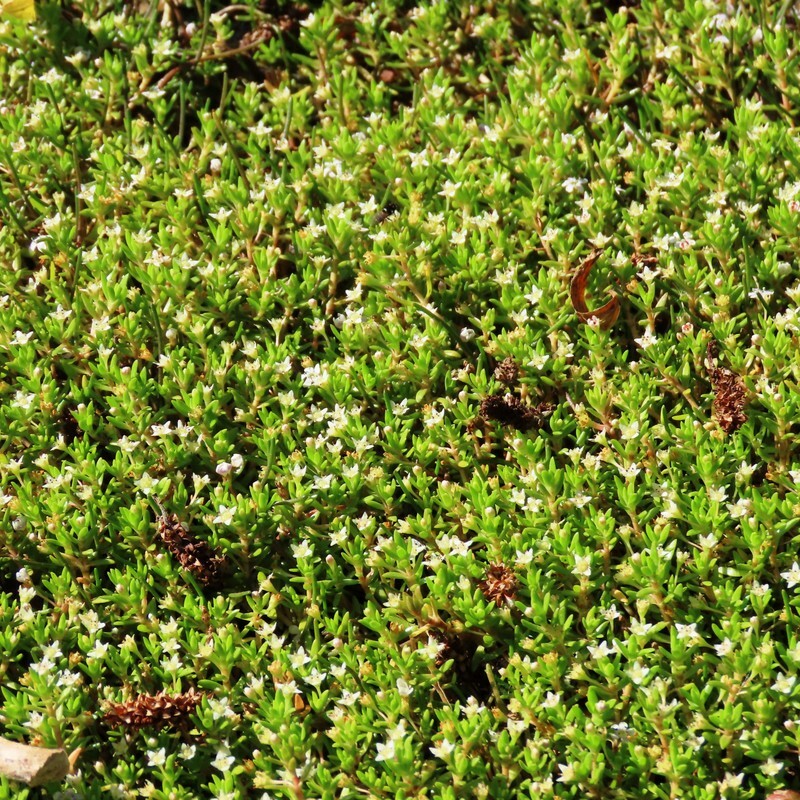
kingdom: Plantae
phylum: Tracheophyta
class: Magnoliopsida
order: Saxifragales
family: Crassulaceae
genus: Crassula
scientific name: Crassula helmsii
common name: New zealand pigmyweed
